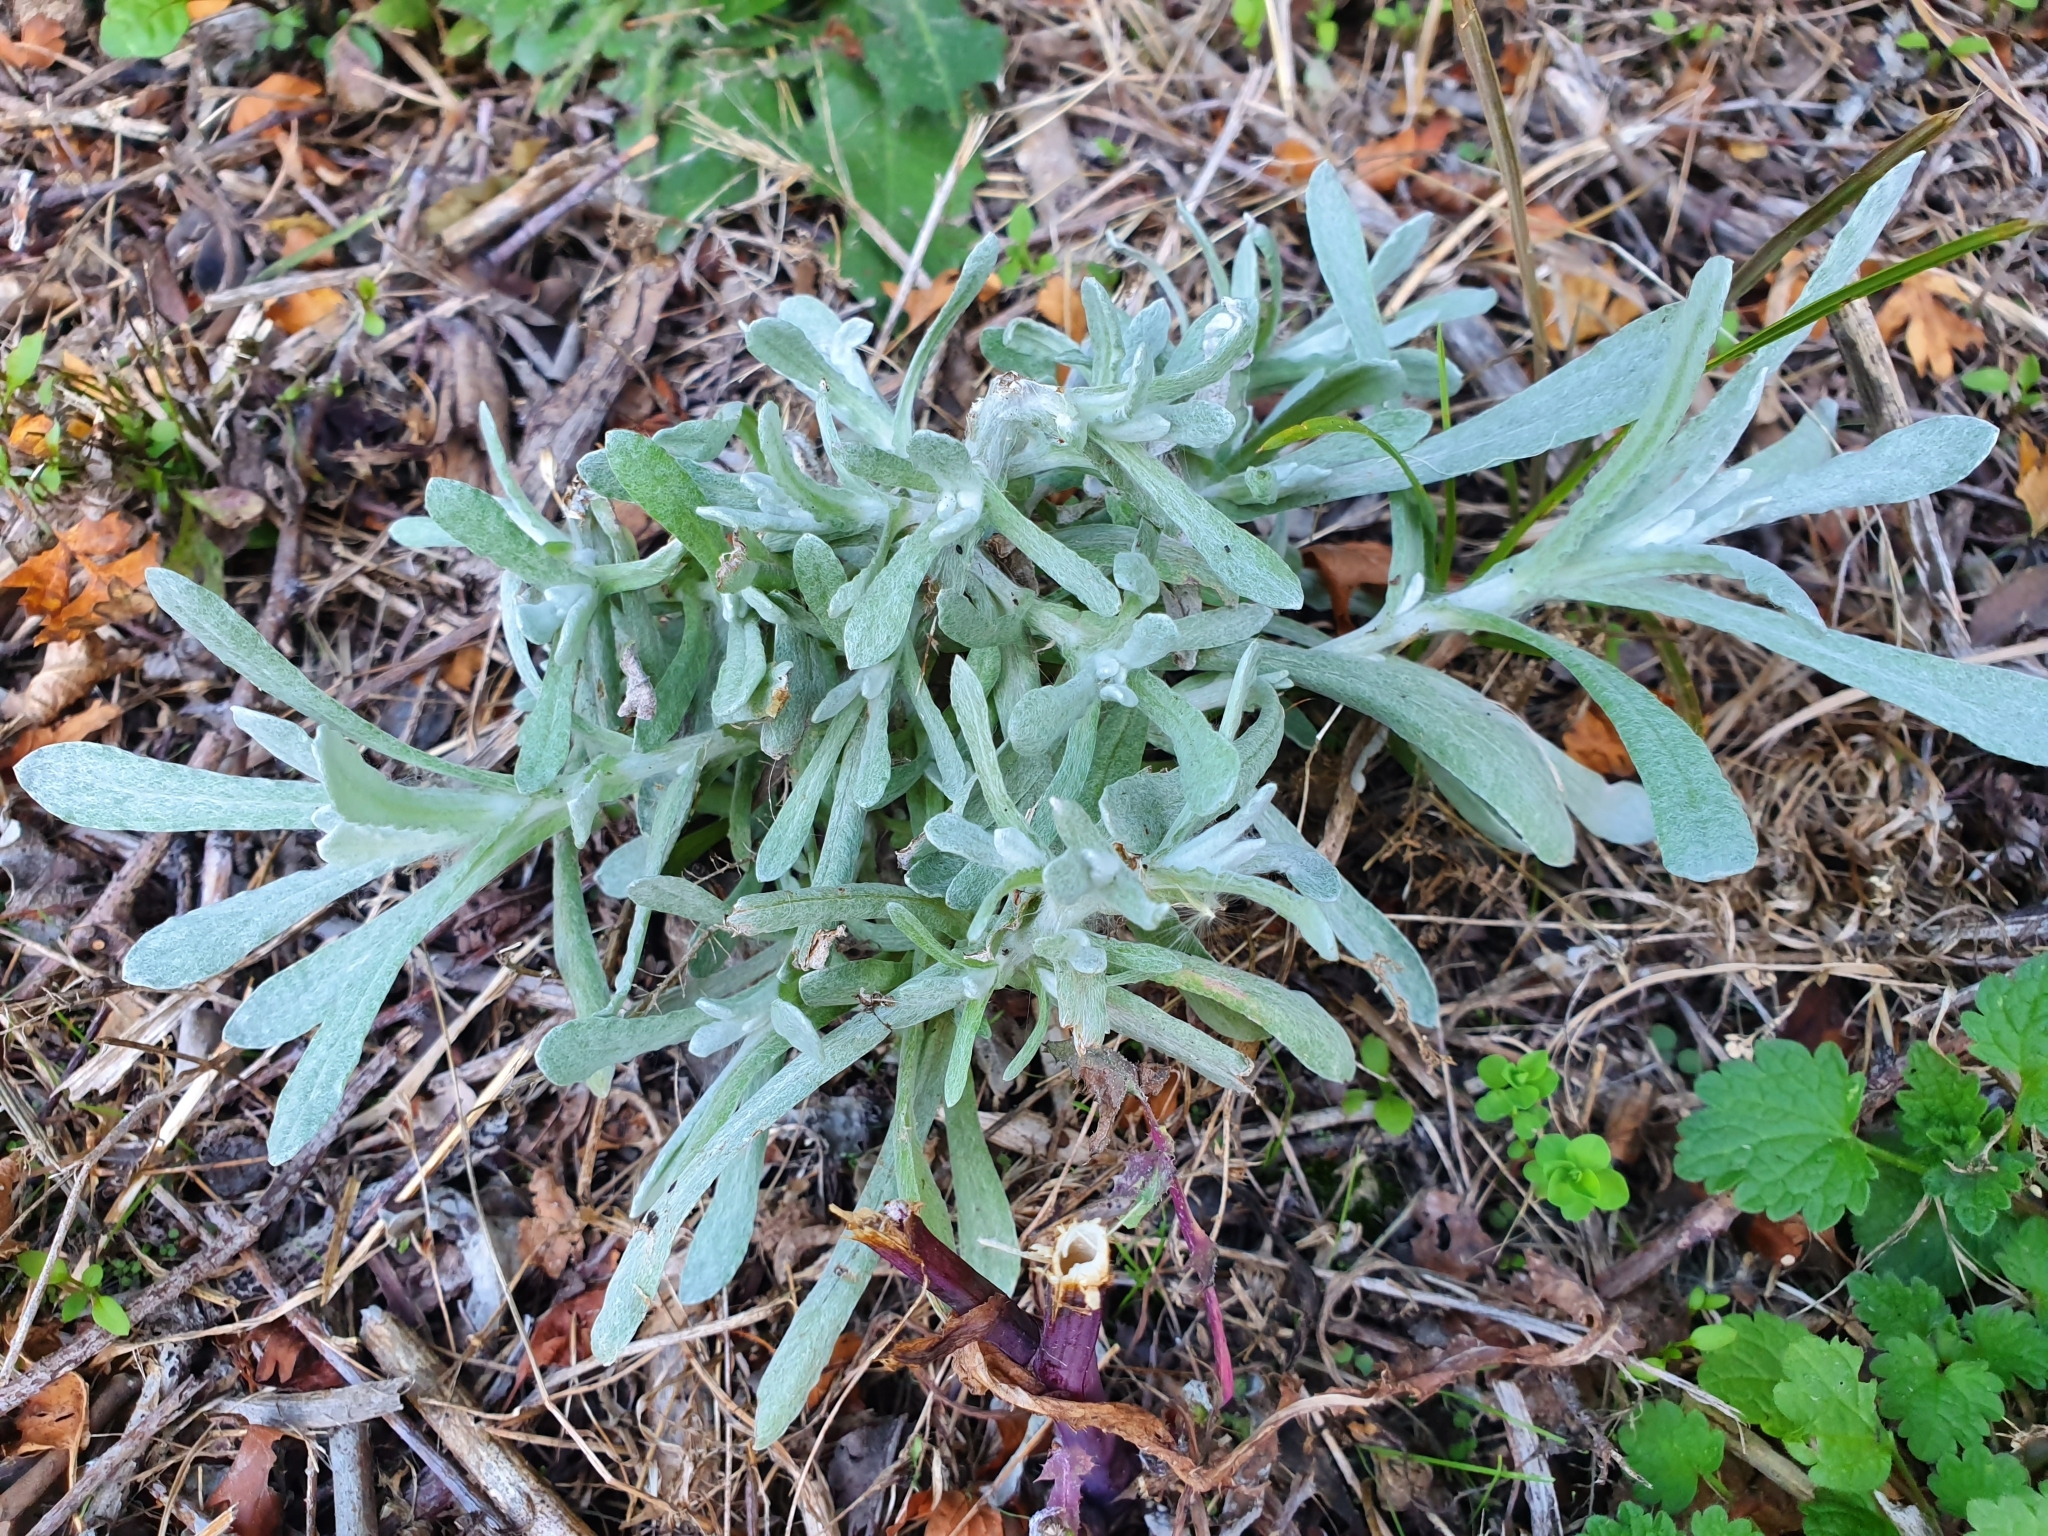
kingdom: Plantae
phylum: Tracheophyta
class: Magnoliopsida
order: Asterales
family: Asteraceae
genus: Helichrysum
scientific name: Helichrysum luteoalbum
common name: Daisy
